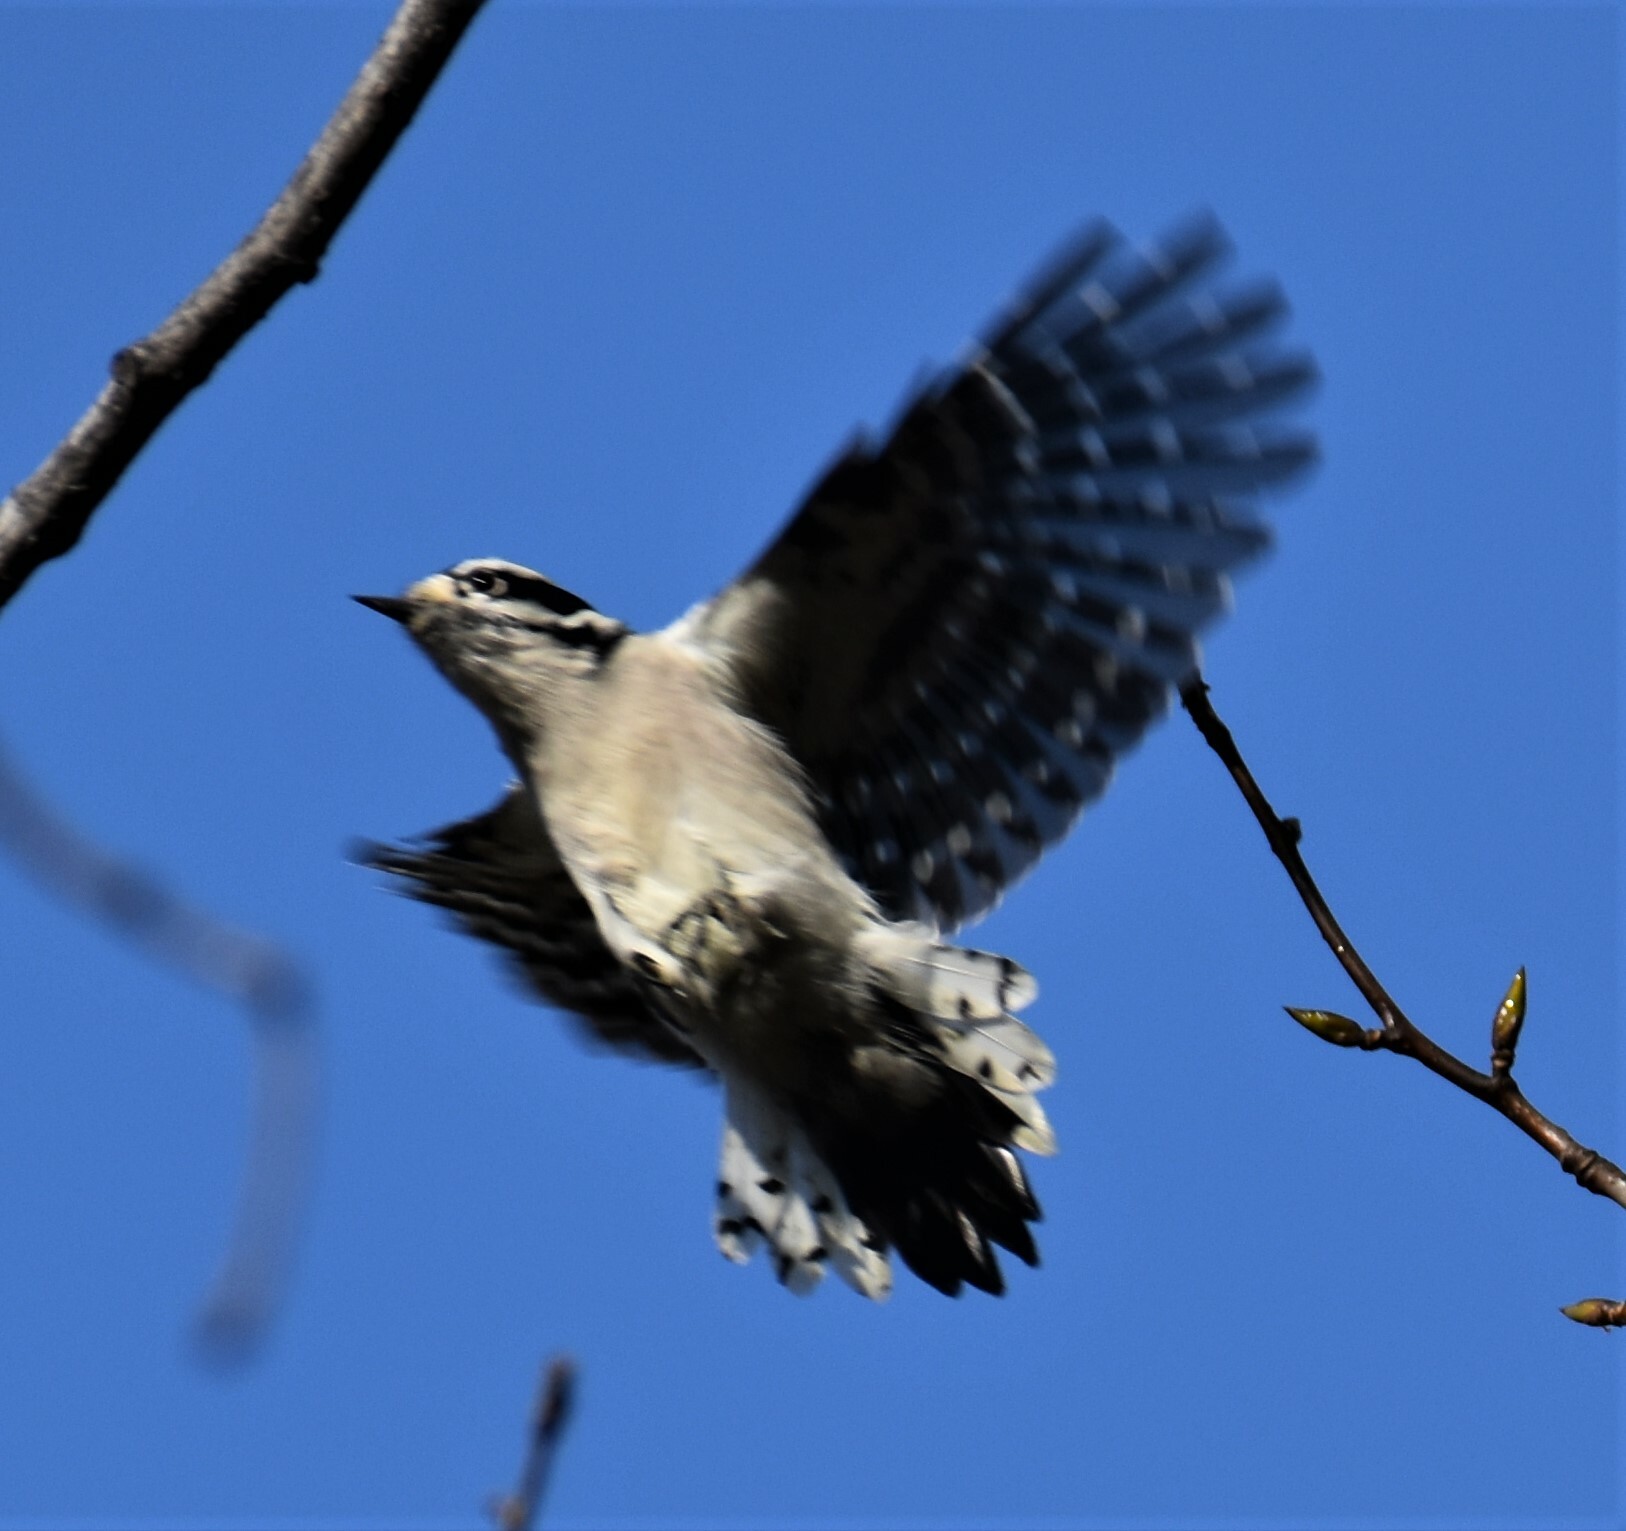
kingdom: Animalia
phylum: Chordata
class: Aves
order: Piciformes
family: Picidae
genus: Dryobates
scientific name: Dryobates pubescens
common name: Downy woodpecker
